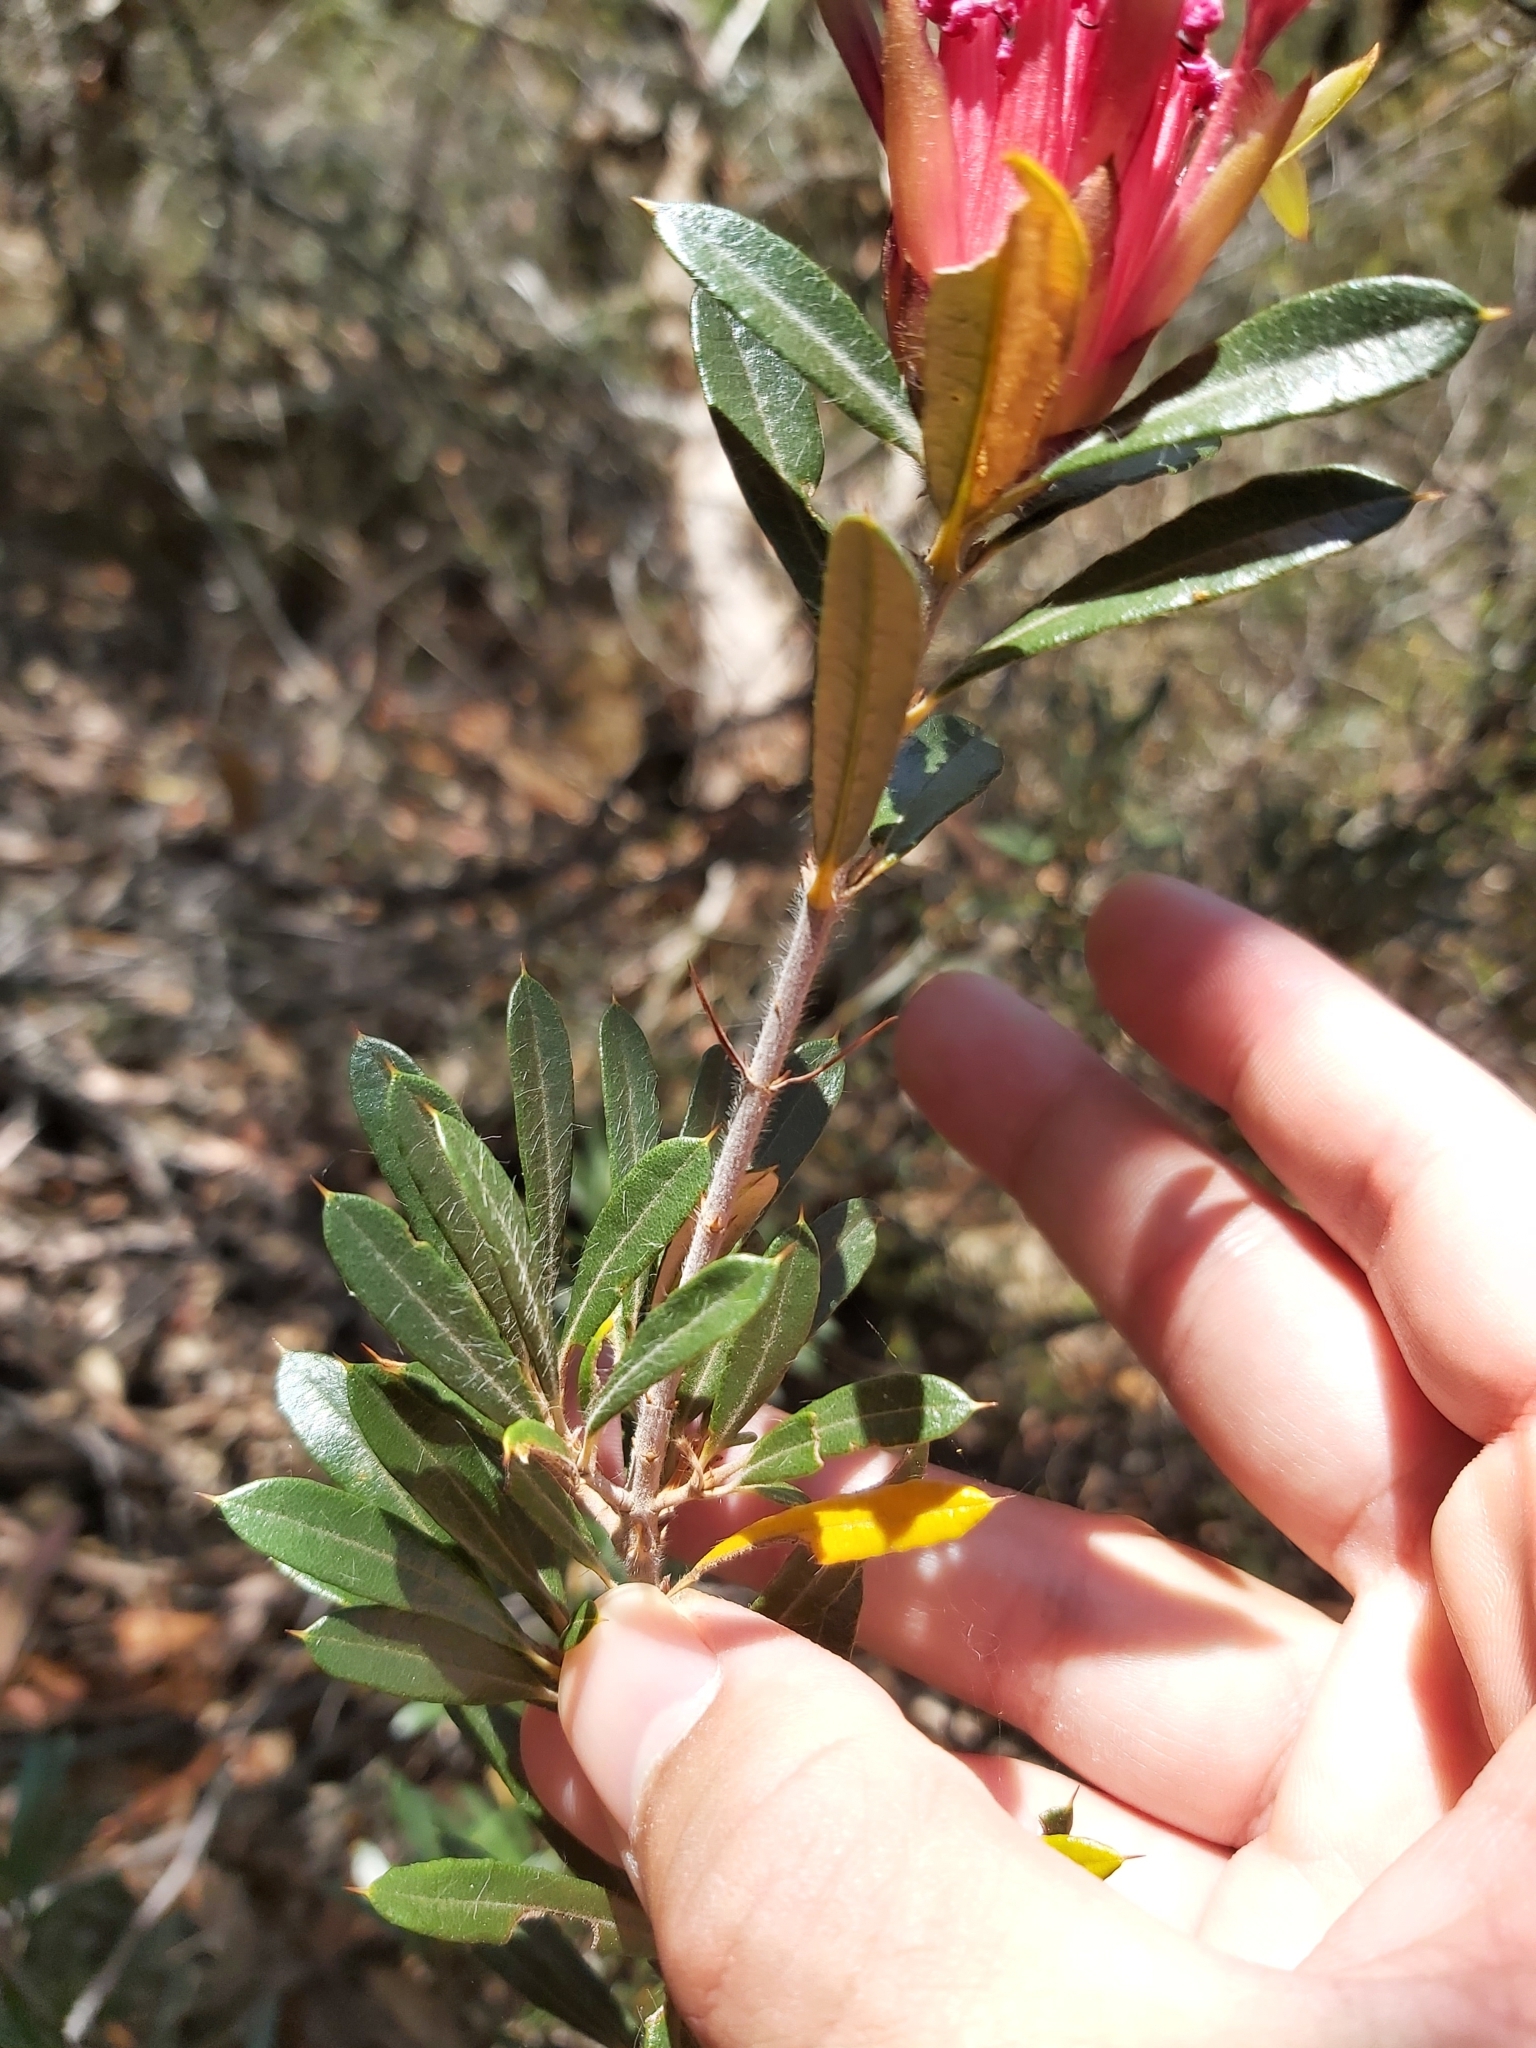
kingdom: Plantae
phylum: Tracheophyta
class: Magnoliopsida
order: Proteales
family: Proteaceae
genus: Lambertia
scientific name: Lambertia formosa
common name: Mountain-devil
